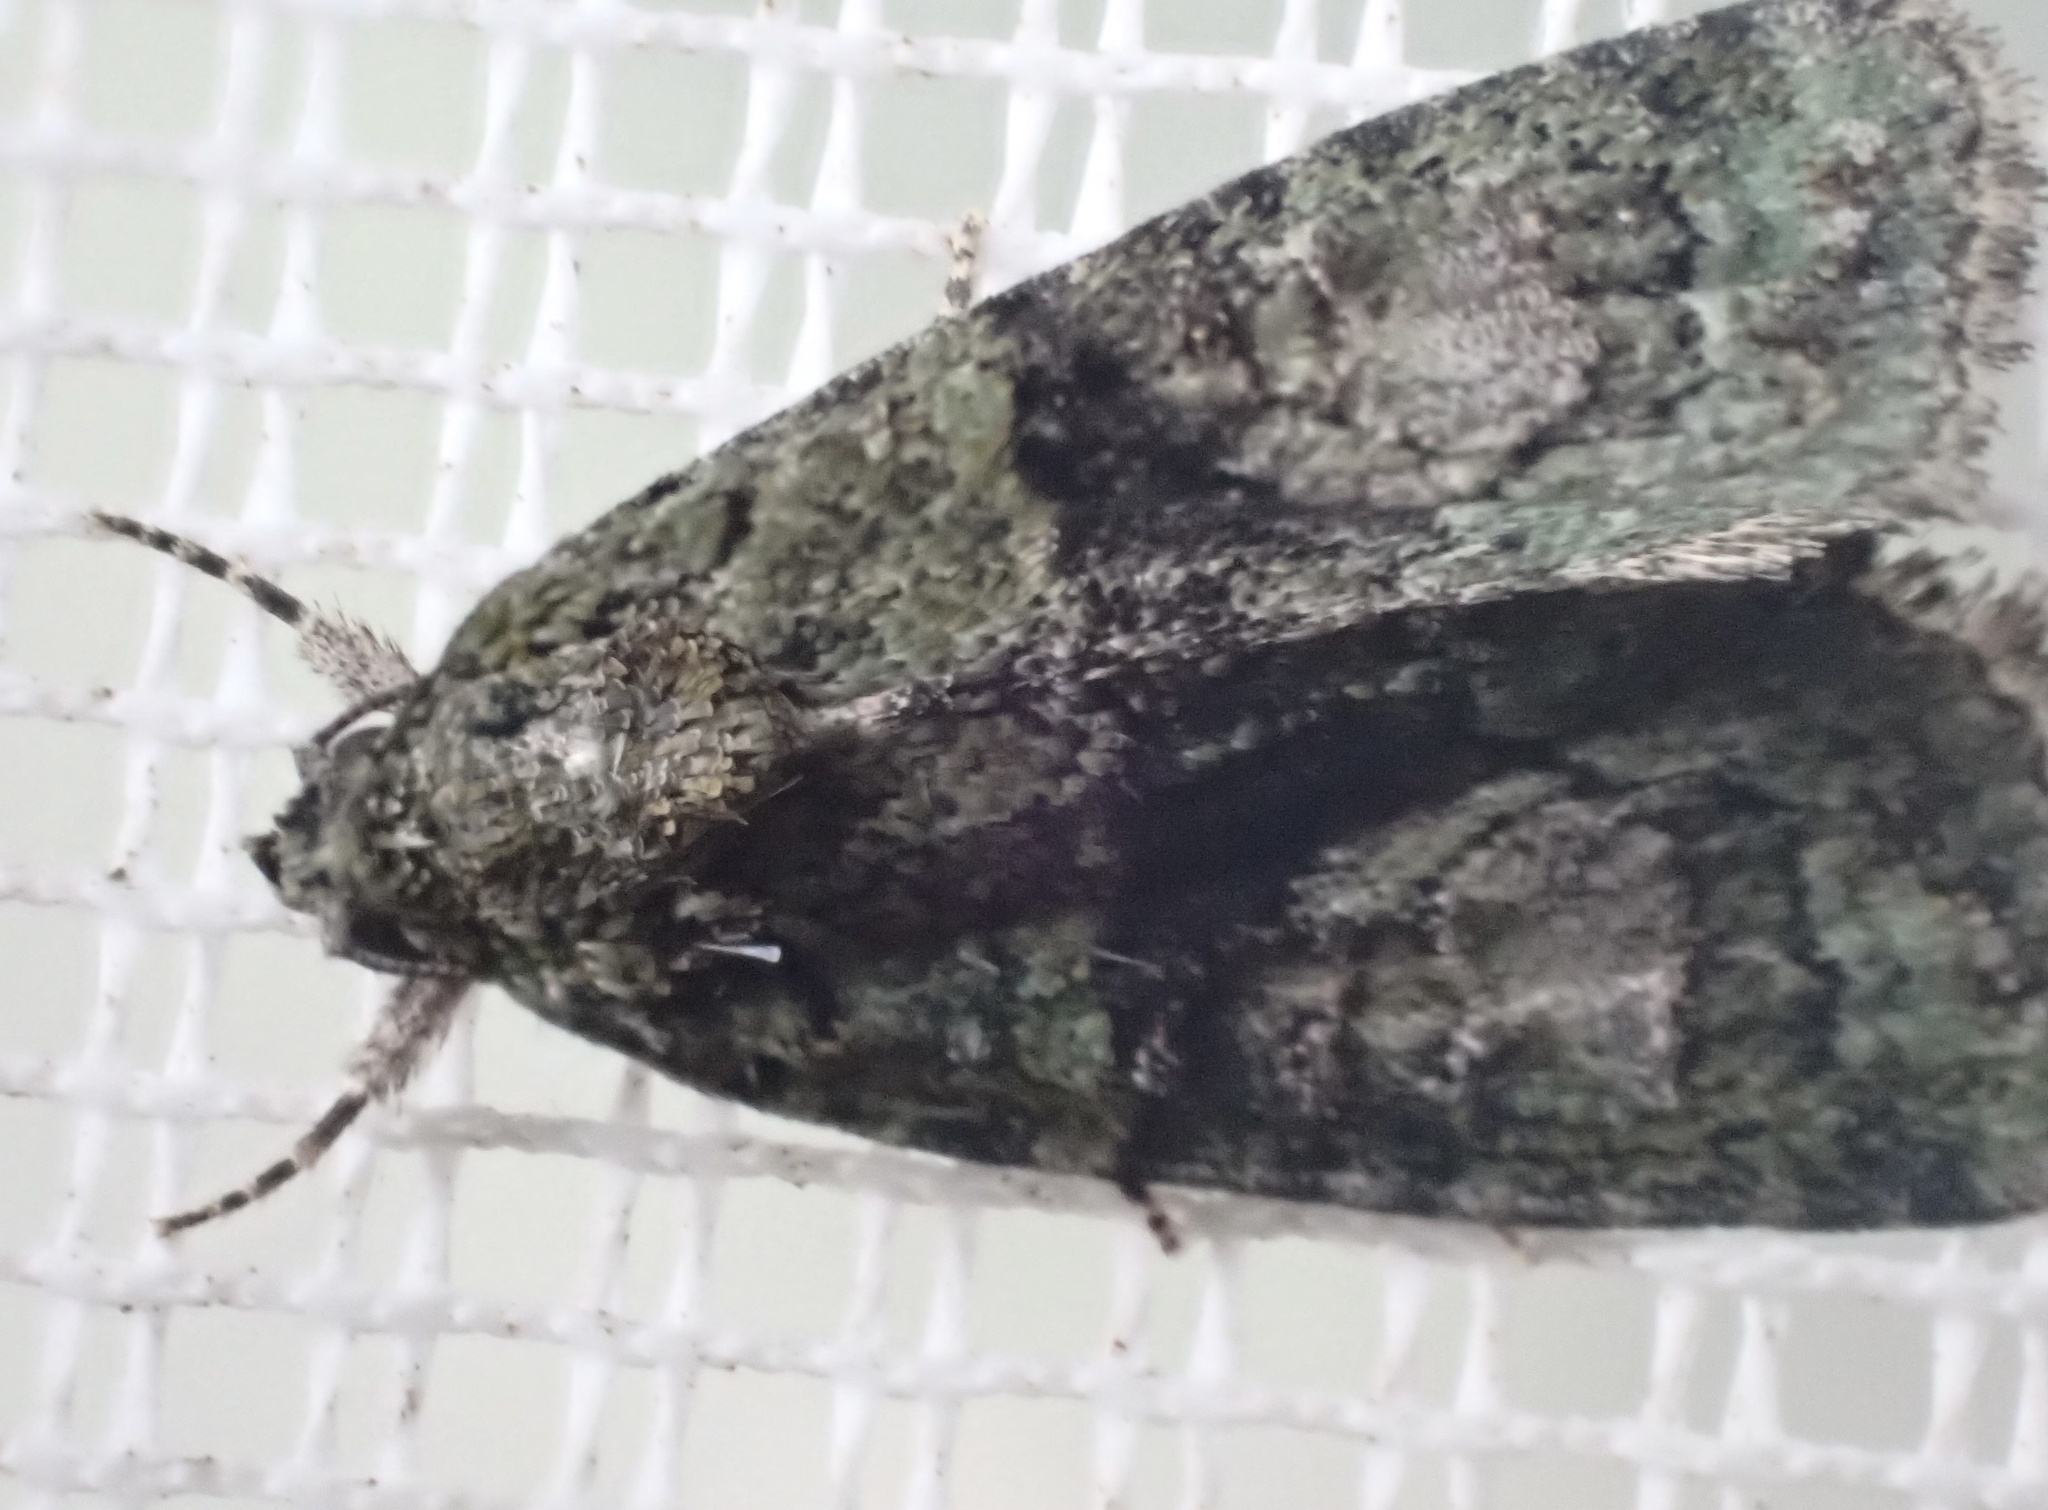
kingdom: Animalia
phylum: Arthropoda
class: Insecta
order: Lepidoptera
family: Noctuidae
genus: Cryphia
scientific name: Cryphia algae
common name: Tree-lichen beauty
